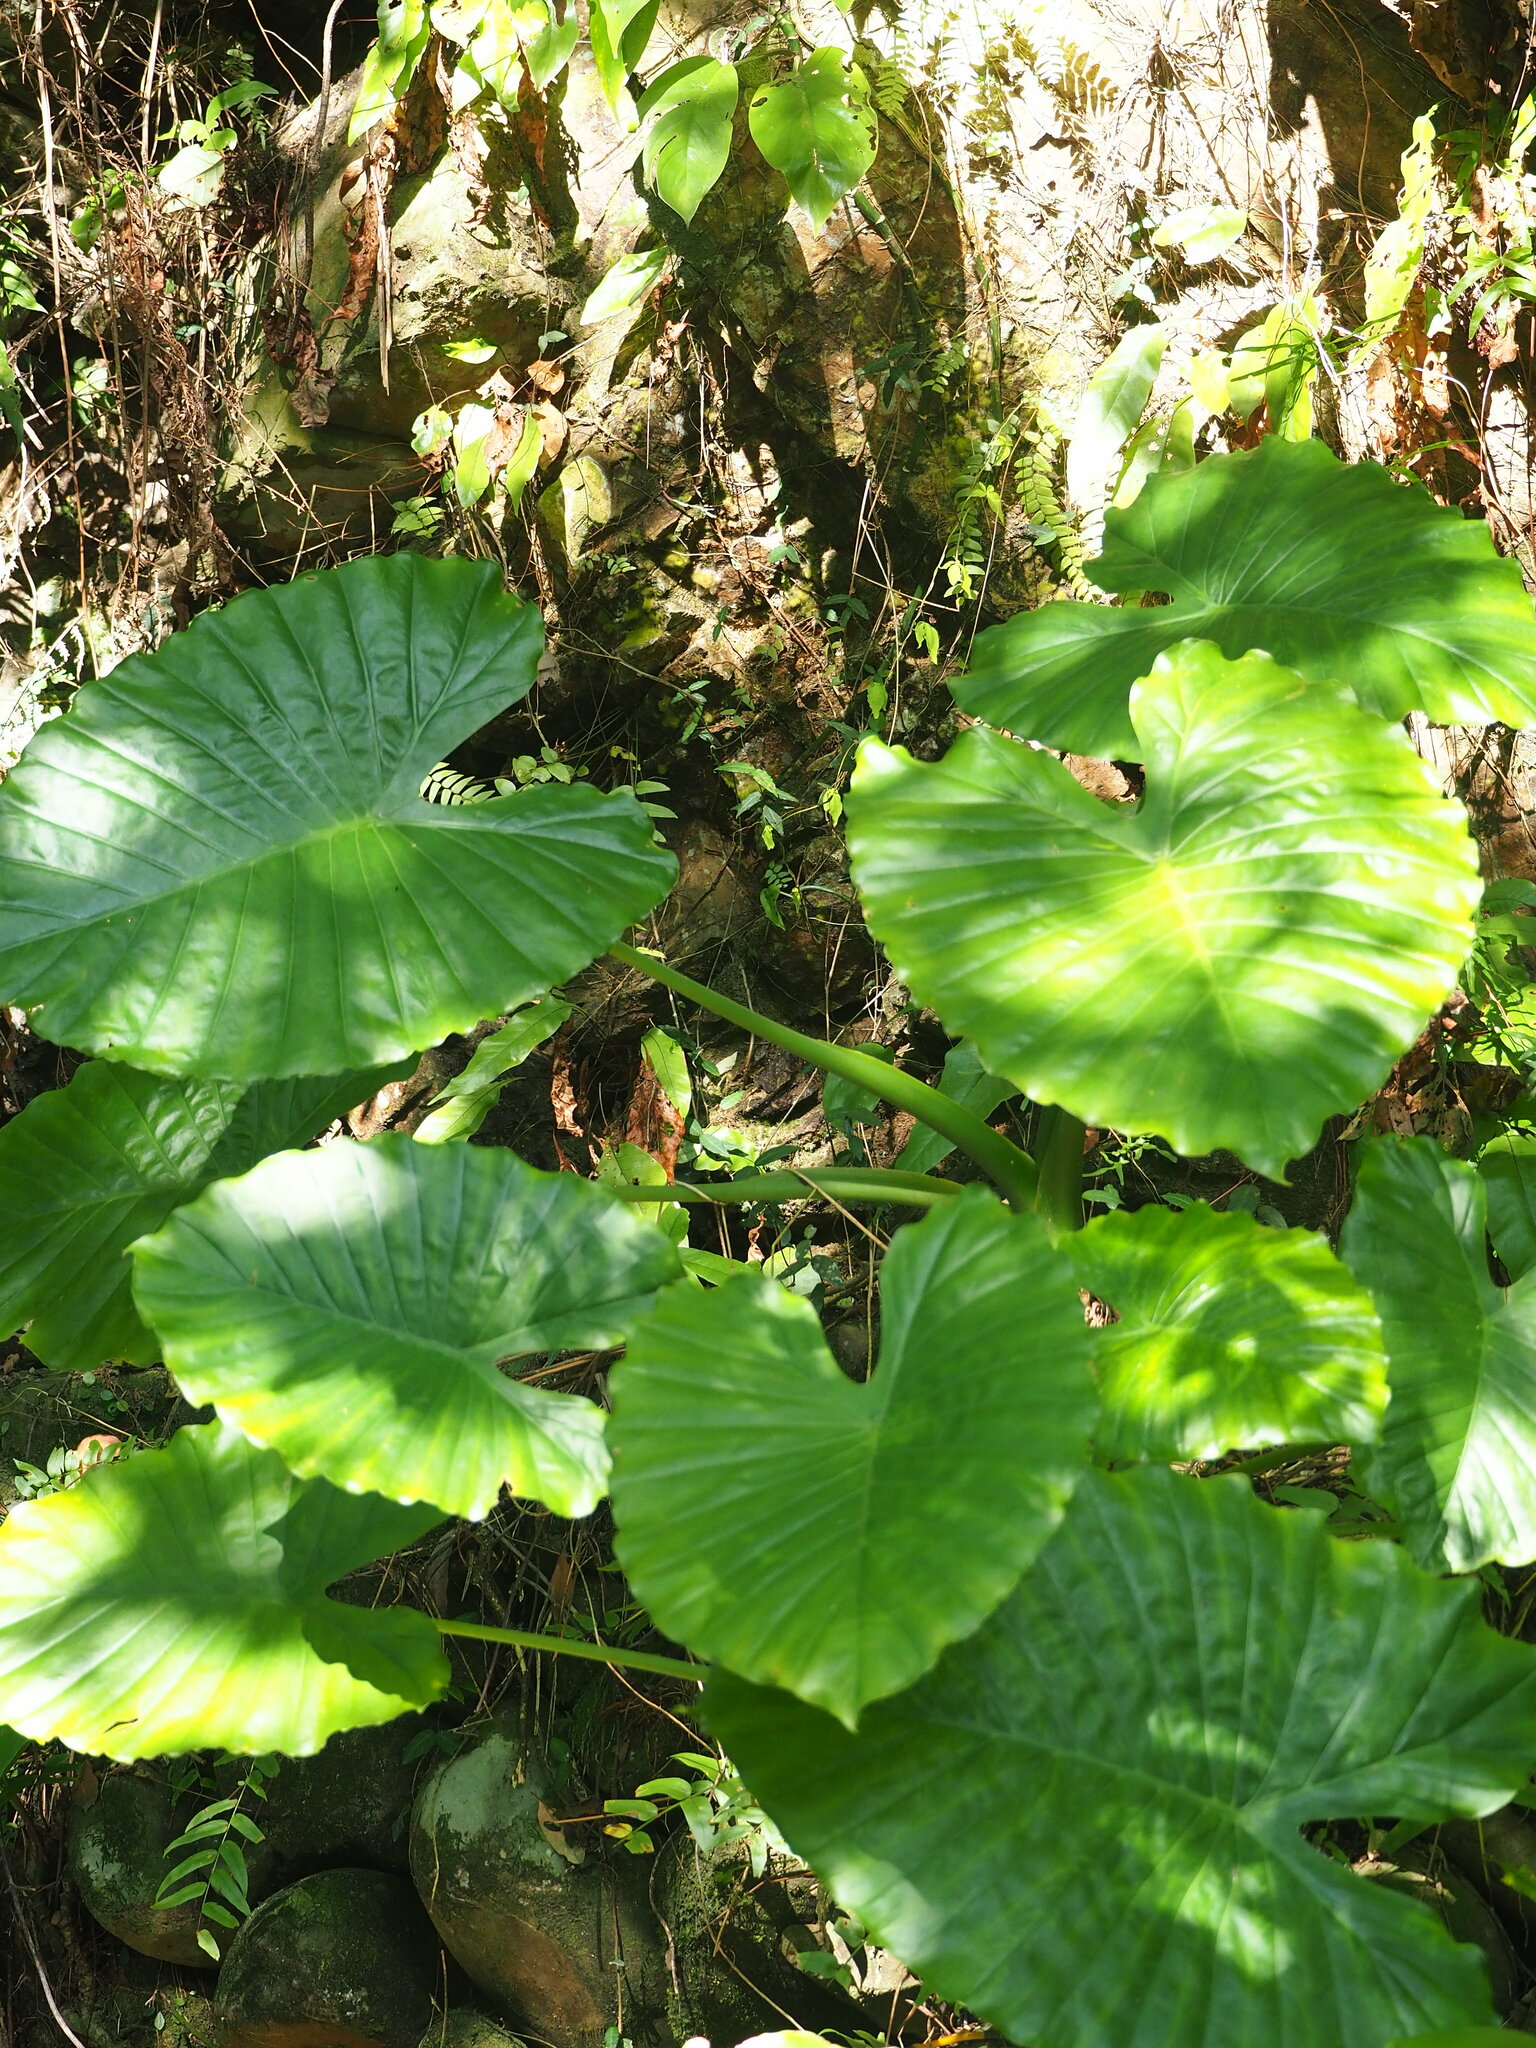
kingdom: Plantae
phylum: Tracheophyta
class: Liliopsida
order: Alismatales
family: Araceae
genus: Alocasia
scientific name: Alocasia odora
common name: Asian taro
